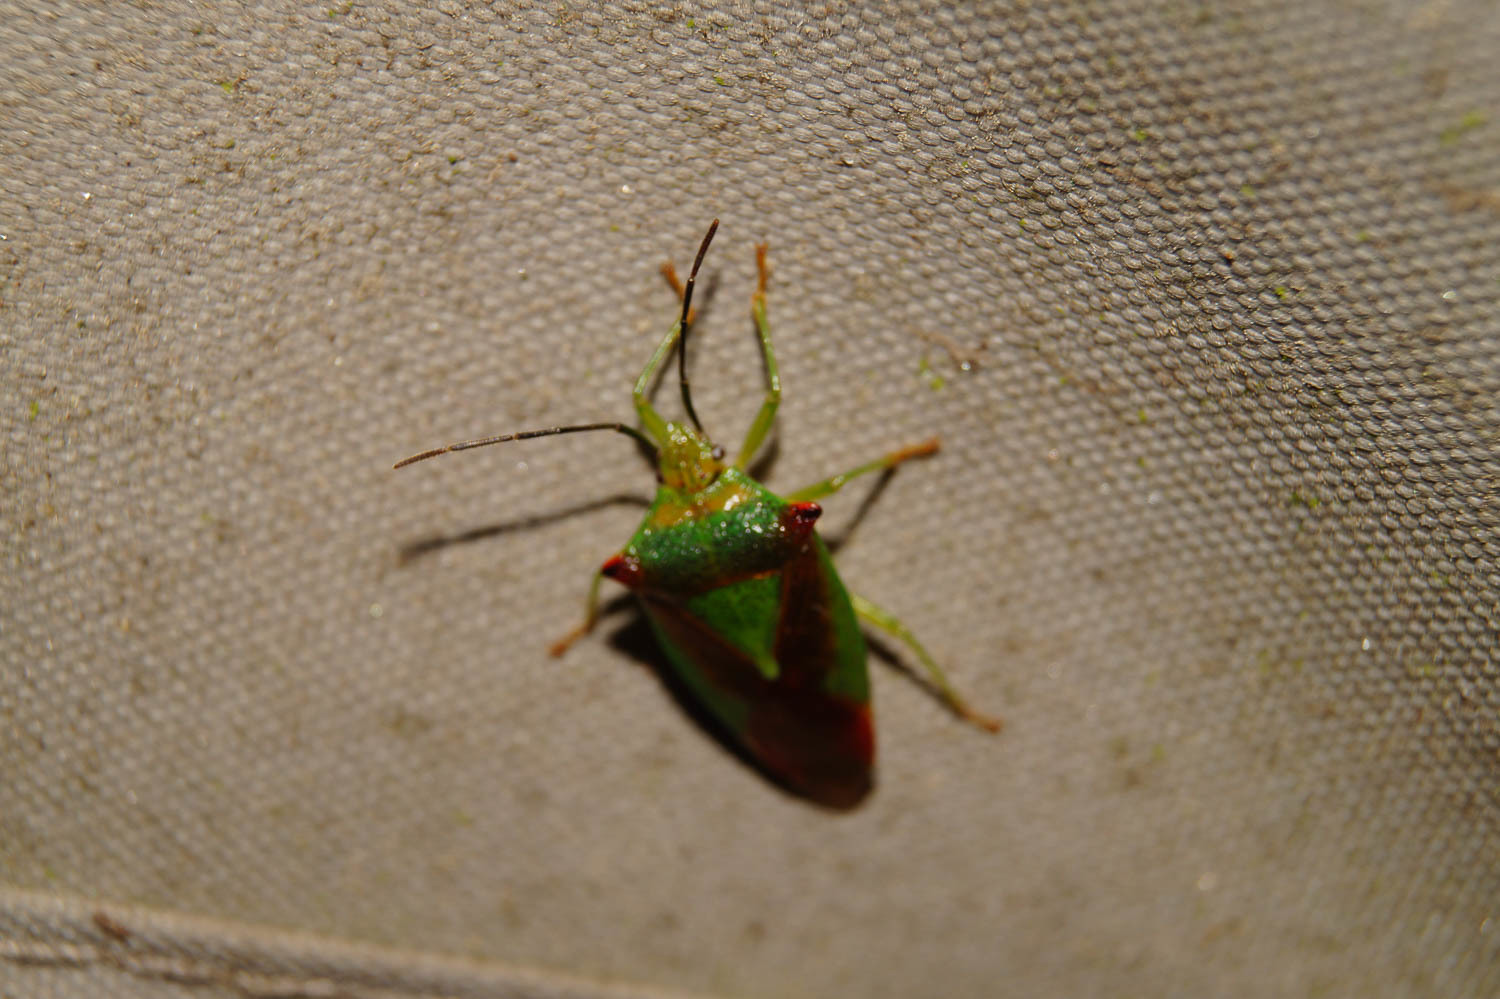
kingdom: Animalia
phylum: Arthropoda
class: Insecta
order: Hemiptera
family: Acanthosomatidae
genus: Acanthosoma
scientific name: Acanthosoma haemorrhoidale
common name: Hawthorn shieldbug
